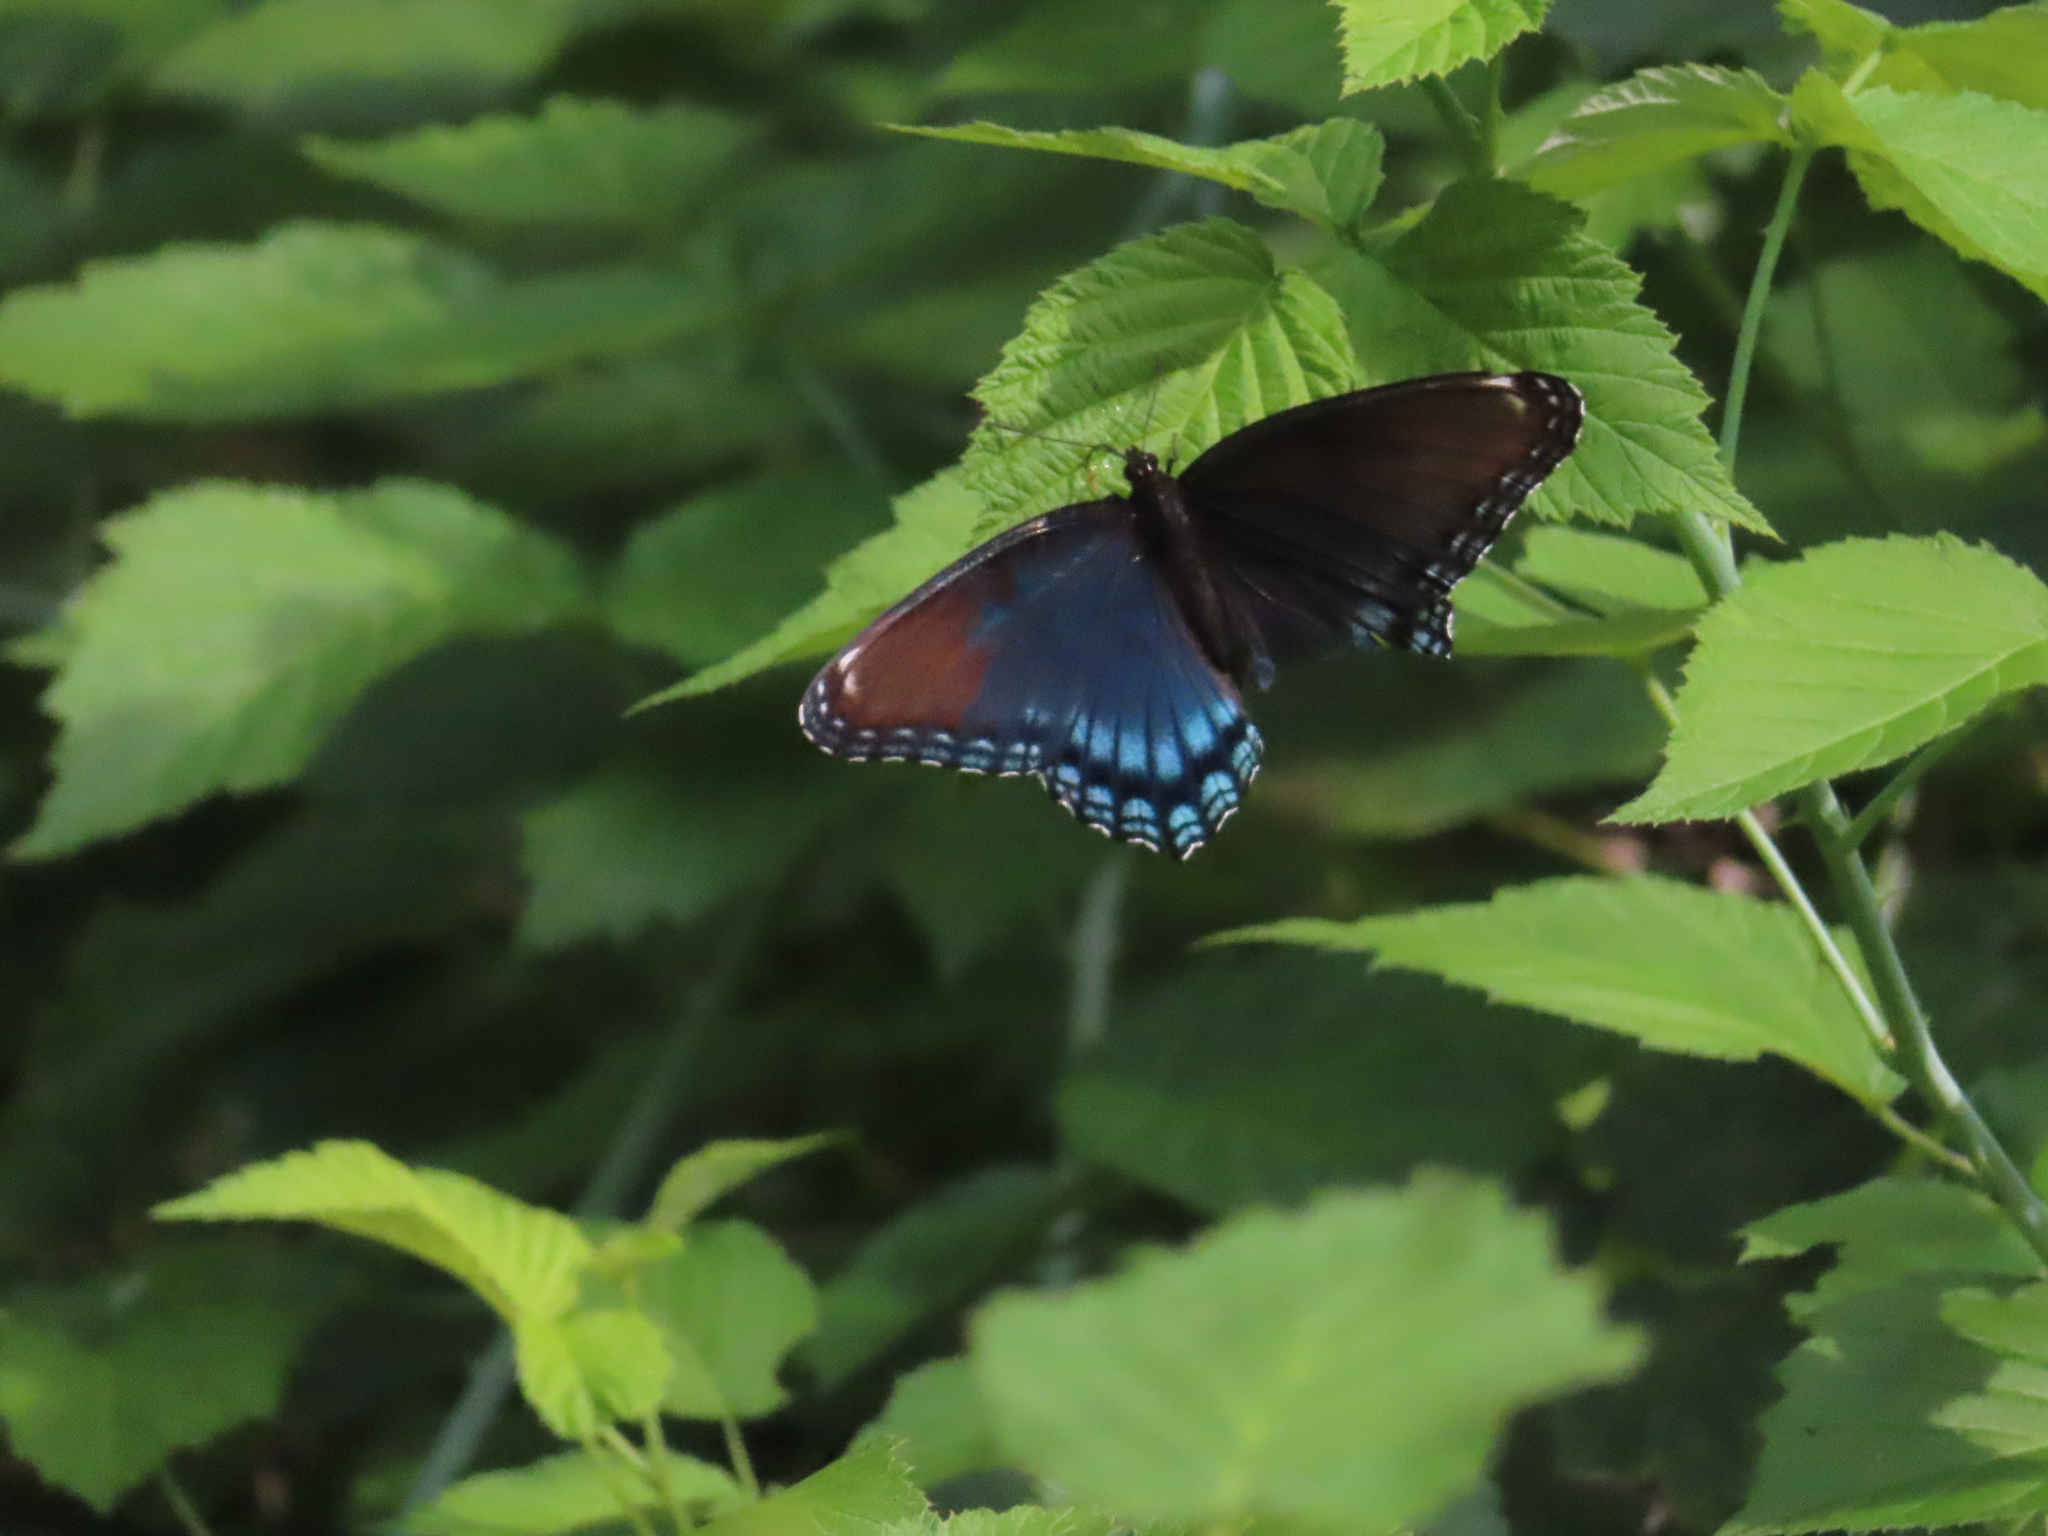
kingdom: Animalia
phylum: Arthropoda
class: Insecta
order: Lepidoptera
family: Nymphalidae
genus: Limenitis
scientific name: Limenitis astyanax
